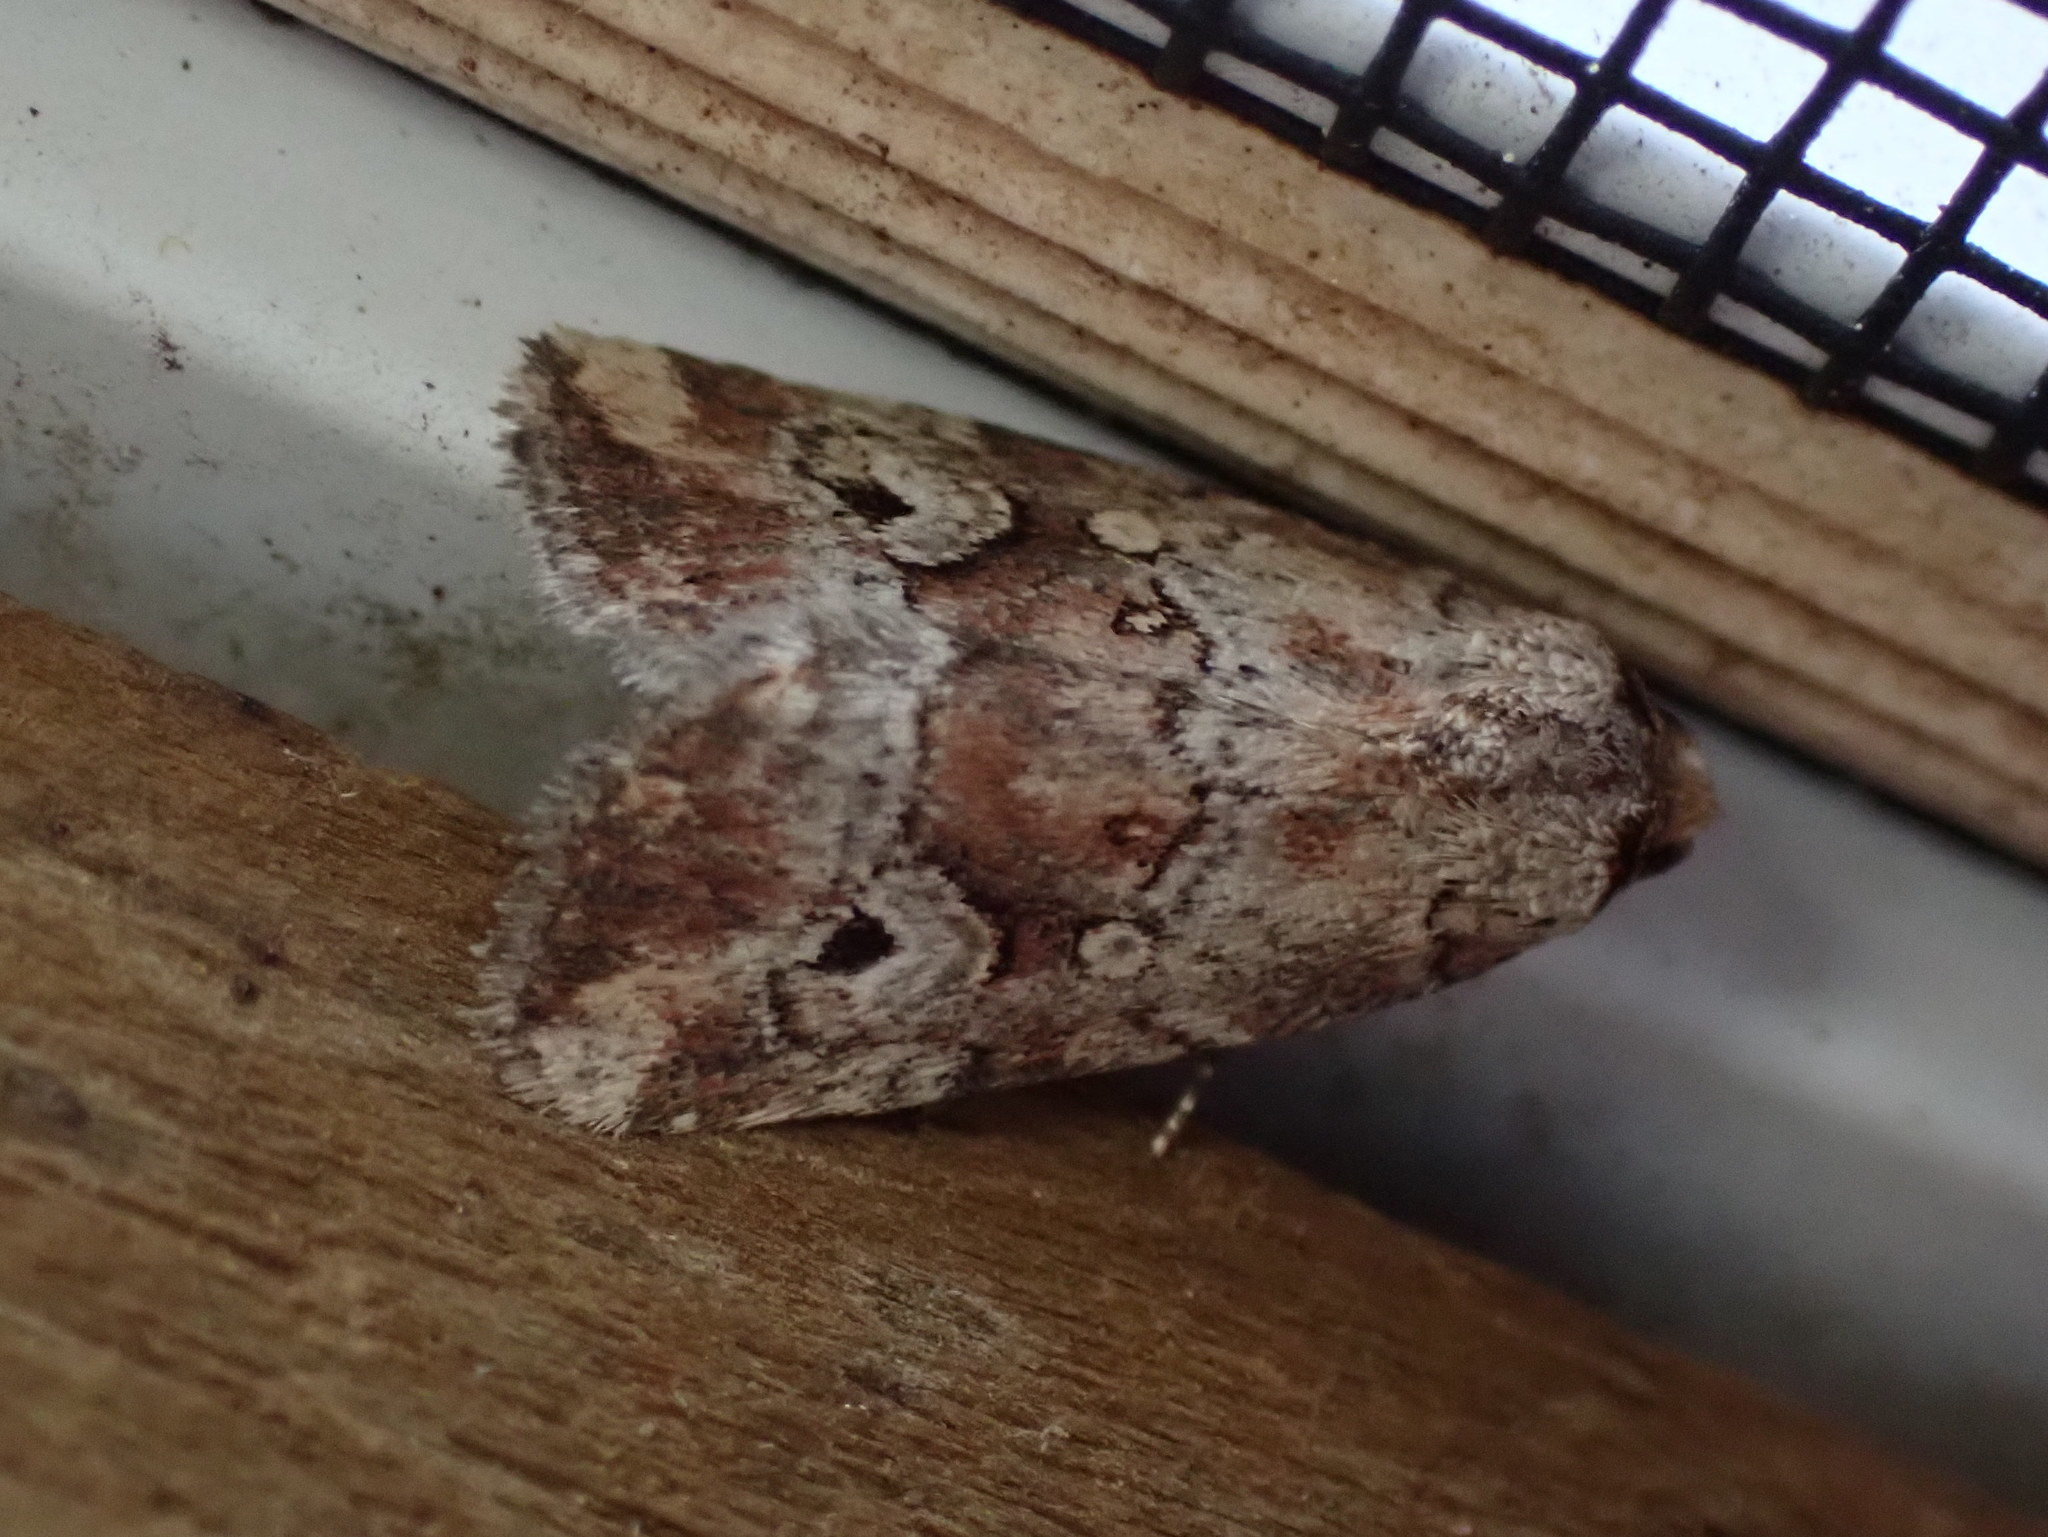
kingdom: Animalia
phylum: Arthropoda
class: Insecta
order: Lepidoptera
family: Noctuidae
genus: Elaphria
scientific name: Elaphria alapallida
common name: Pale-winged midget
